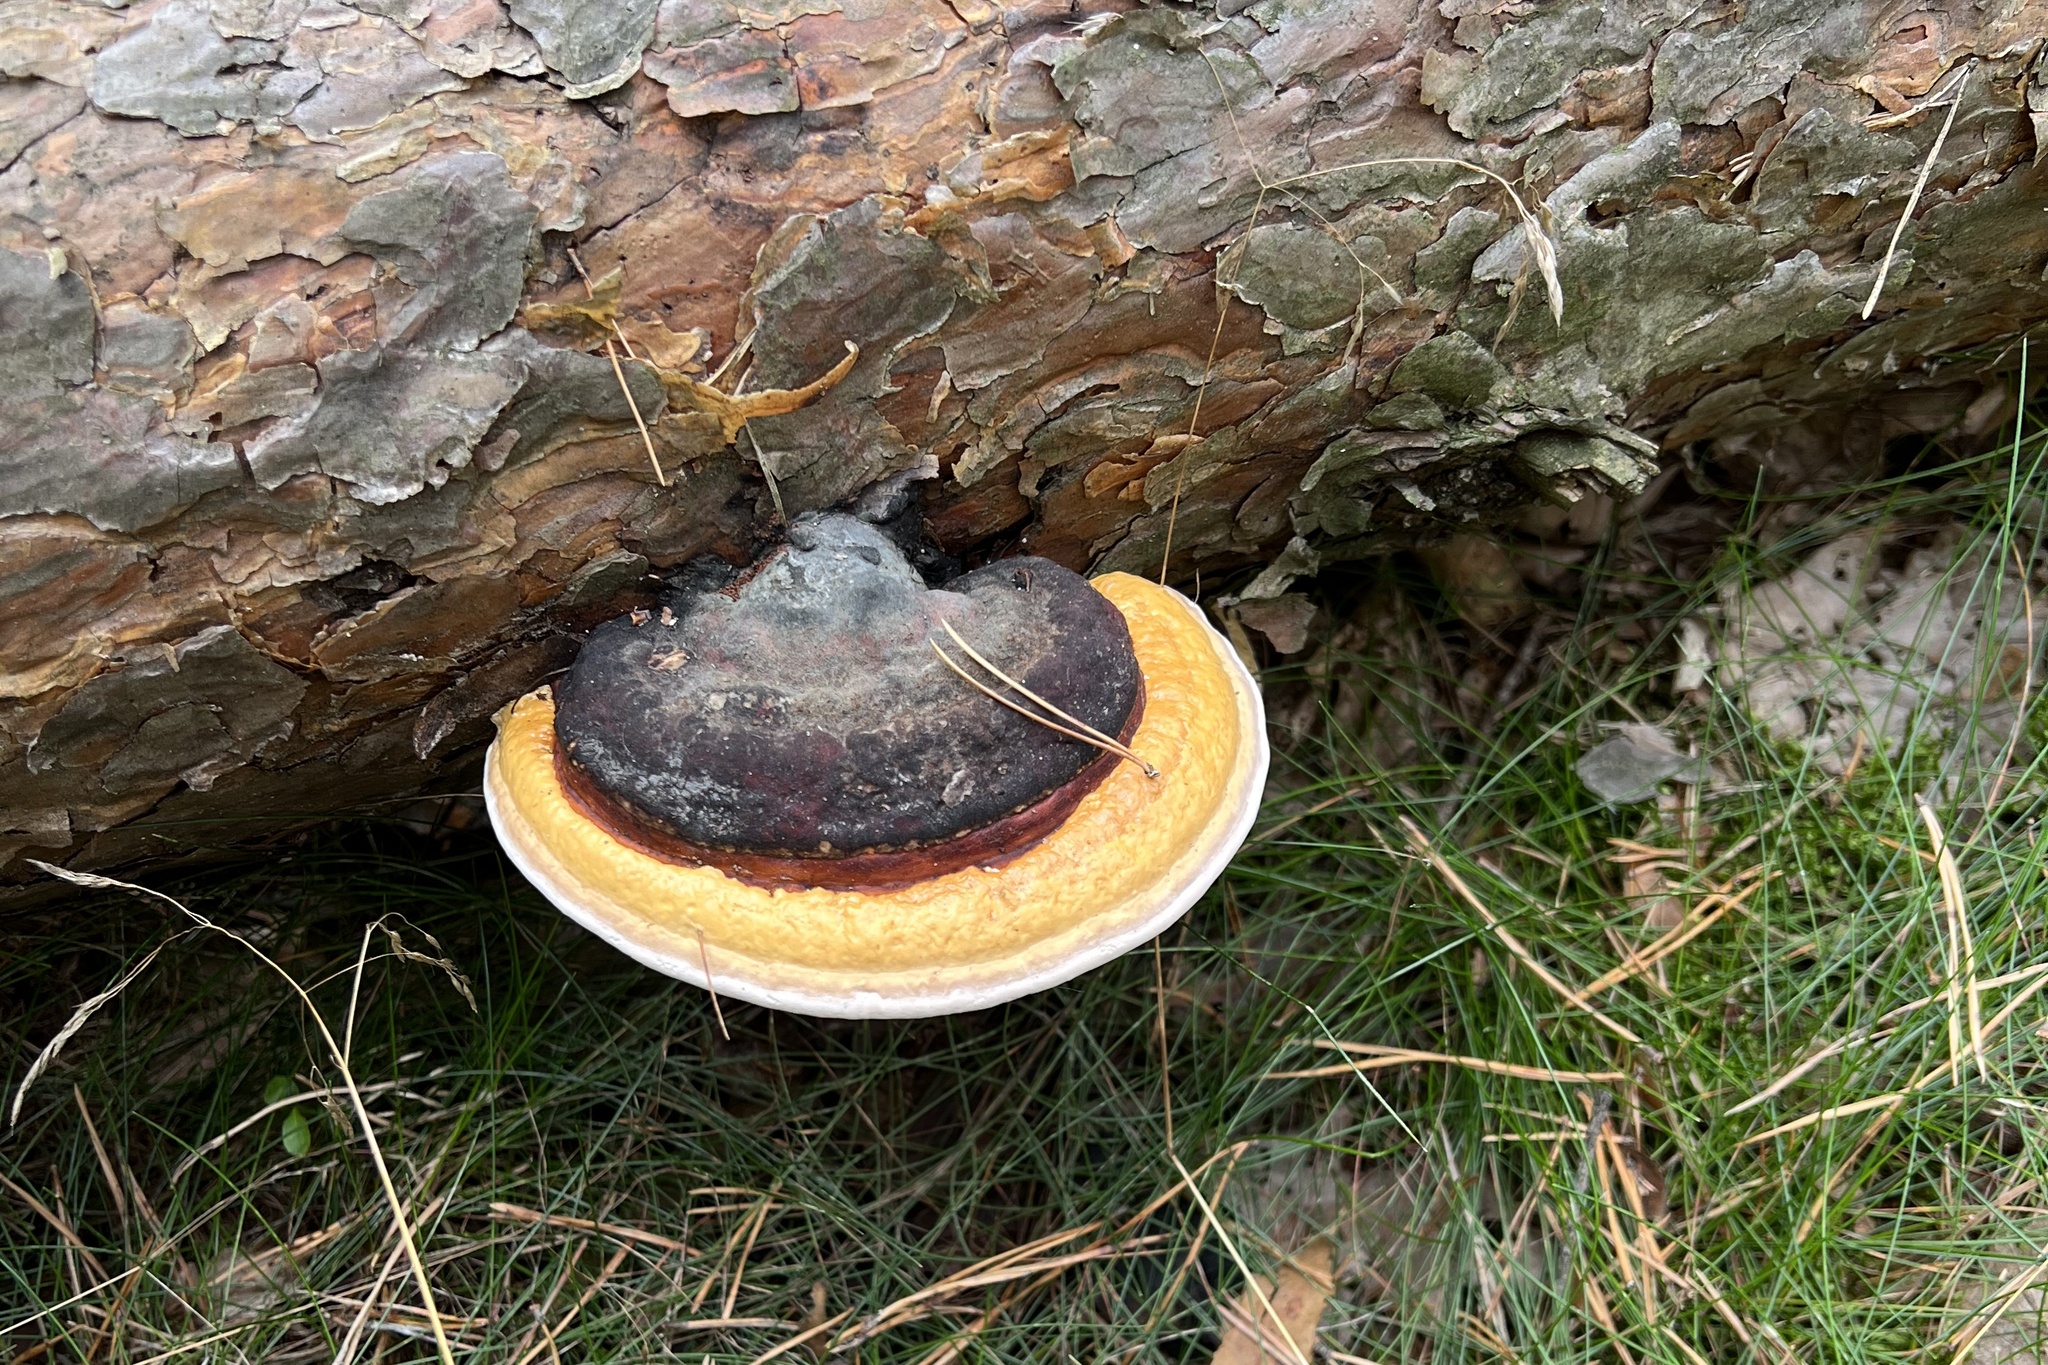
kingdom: Fungi
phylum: Basidiomycota
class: Agaricomycetes
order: Polyporales
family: Fomitopsidaceae
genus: Fomitopsis
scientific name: Fomitopsis pinicola
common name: Red-belted bracket
